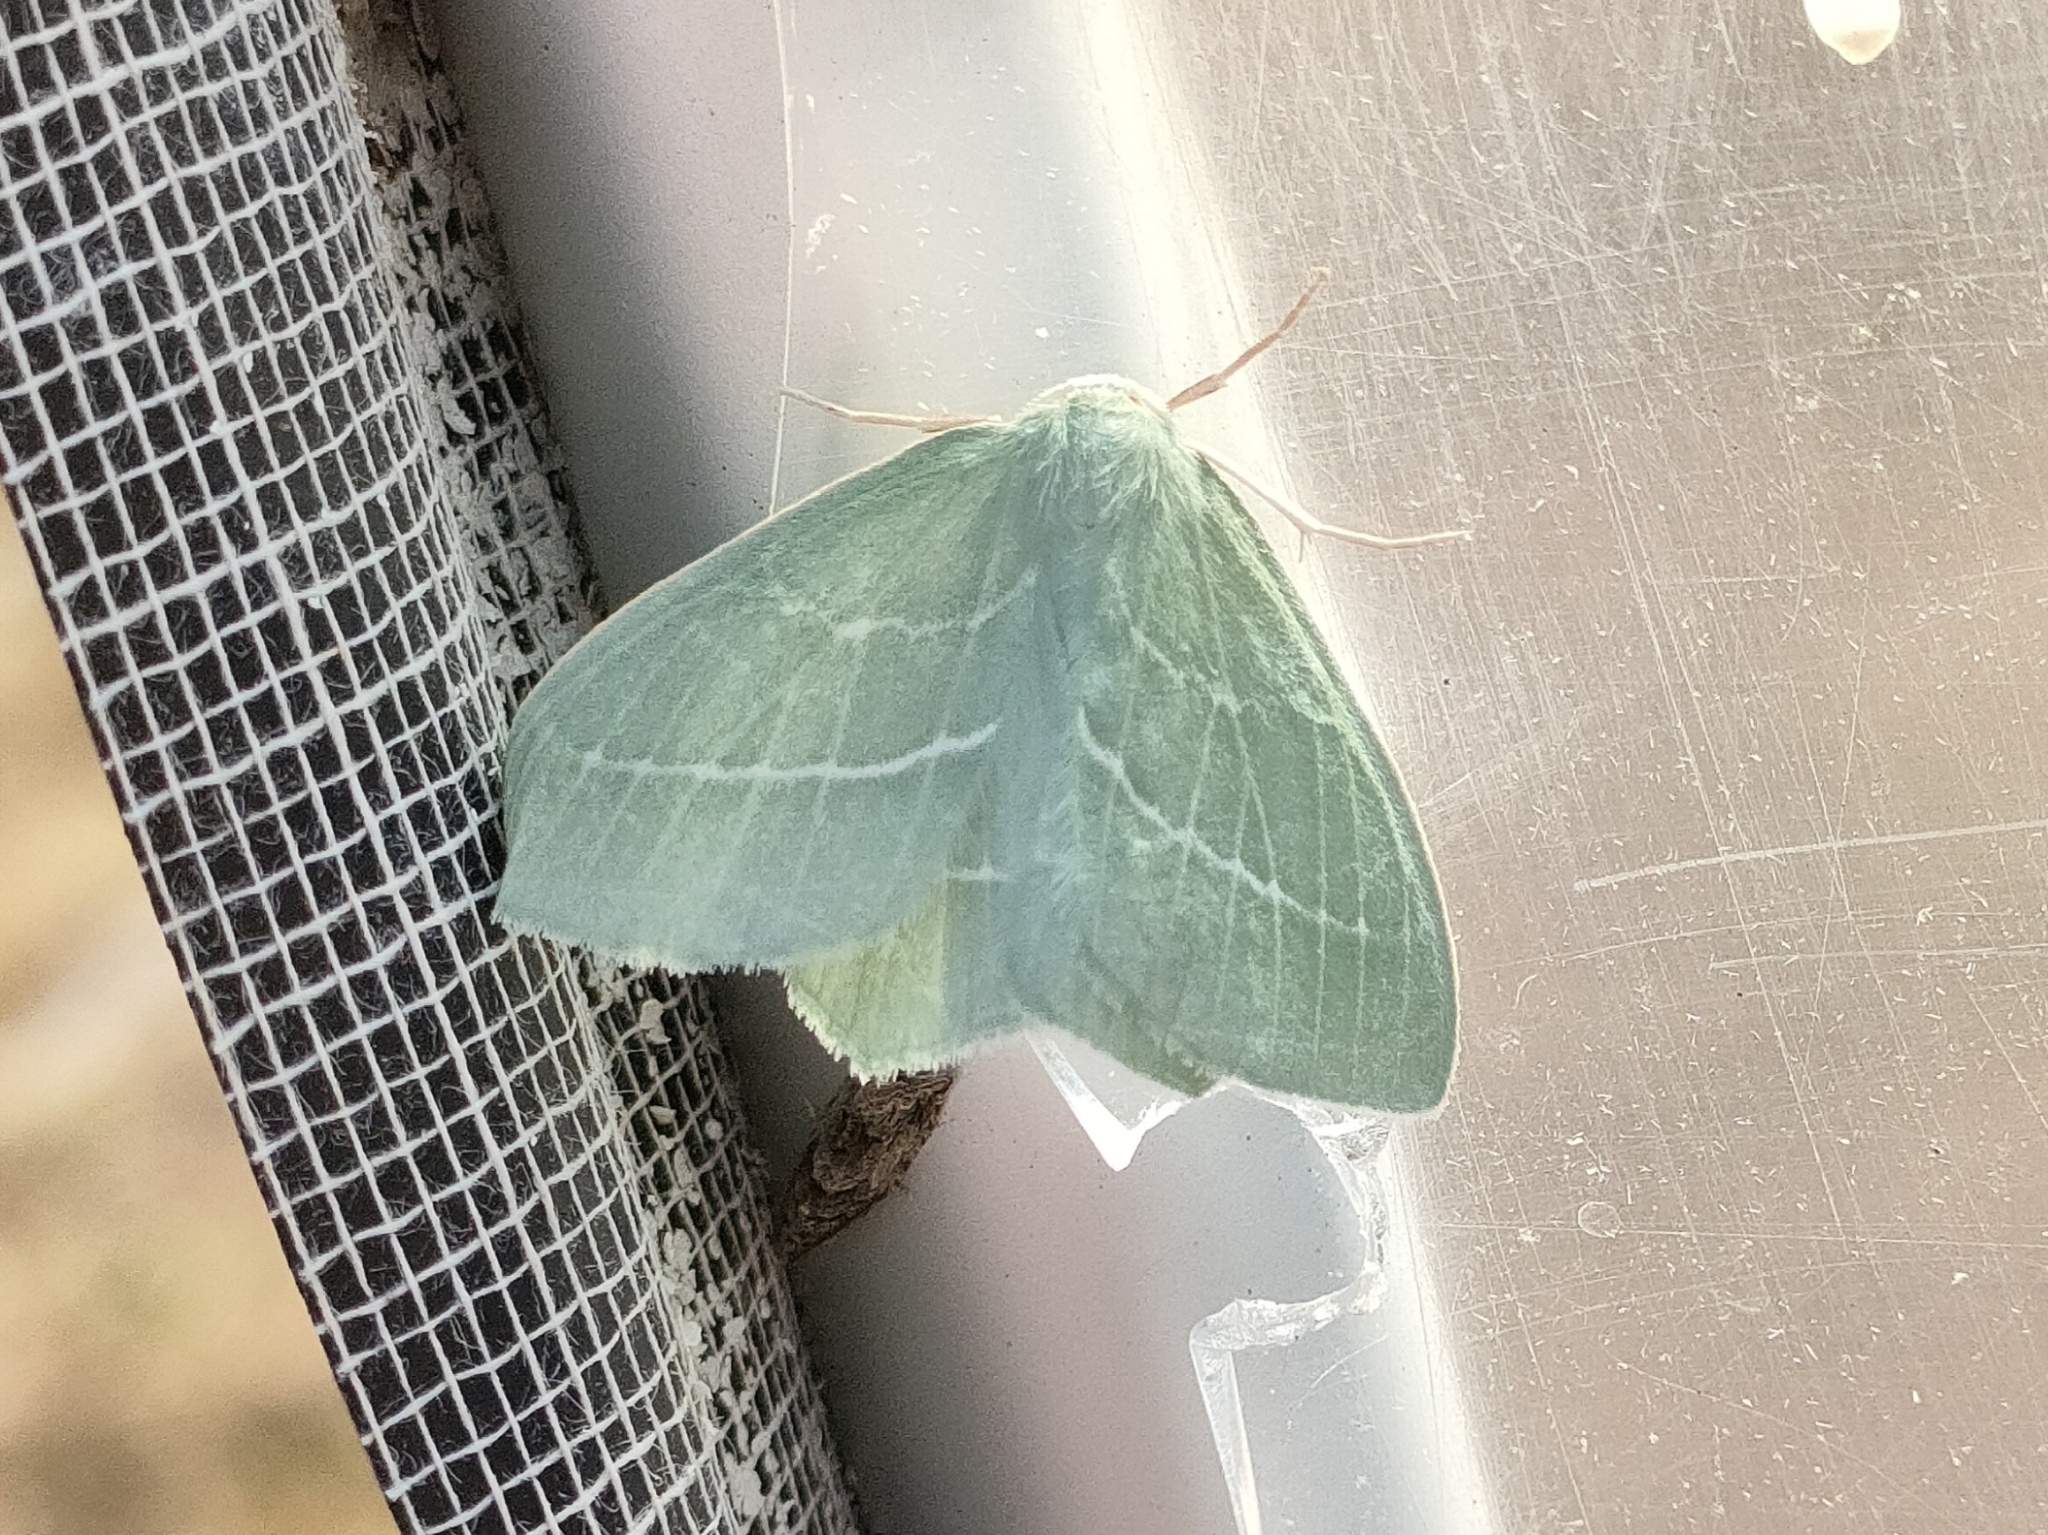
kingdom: Animalia
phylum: Arthropoda
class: Insecta
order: Lepidoptera
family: Geometridae
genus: Hemistola
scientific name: Hemistola chrysoprasaria
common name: Small emerald
